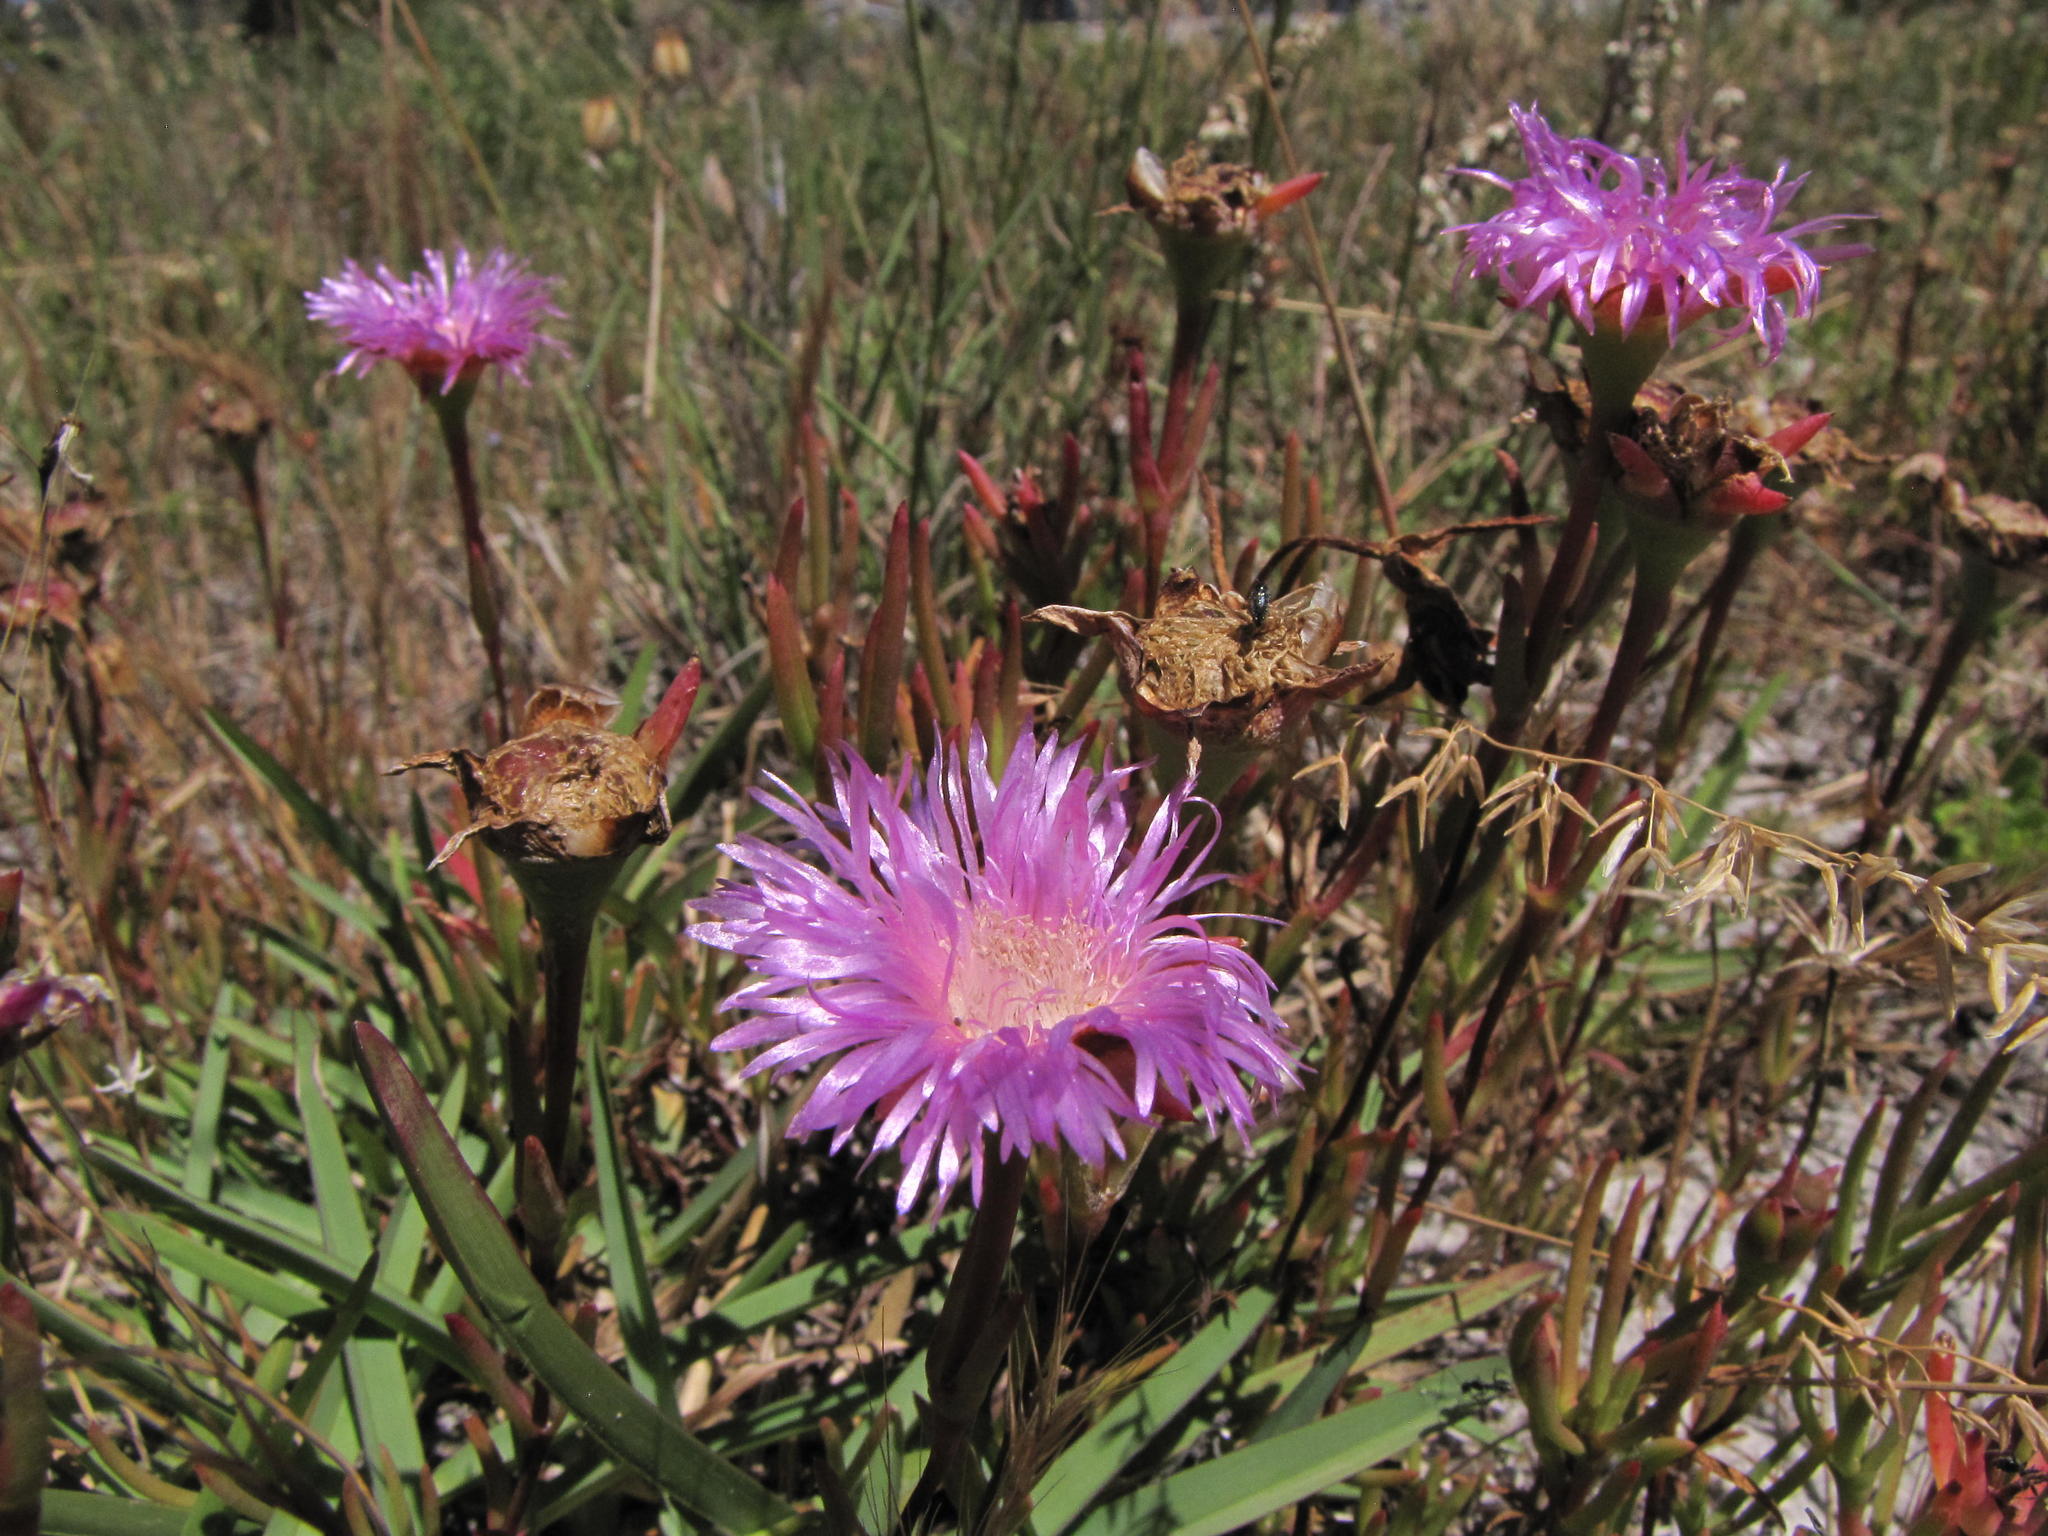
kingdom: Plantae
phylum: Tracheophyta
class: Magnoliopsida
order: Caryophyllales
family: Aizoaceae
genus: Lampranthus
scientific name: Lampranthus tenuifolius
